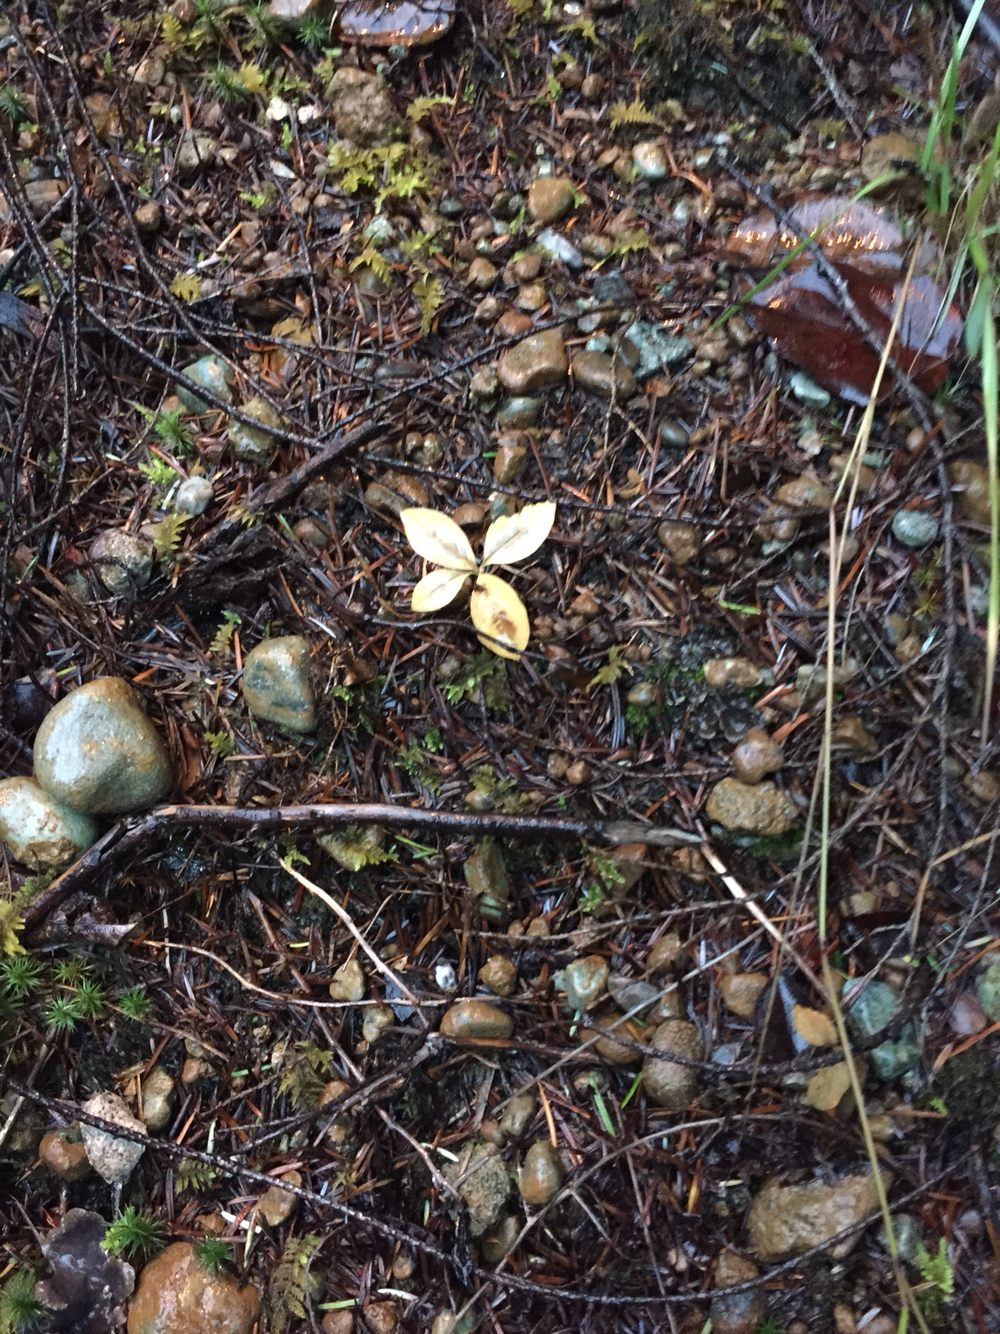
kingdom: Plantae
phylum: Tracheophyta
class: Magnoliopsida
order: Ericales
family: Primulaceae
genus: Lysimachia
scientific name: Lysimachia latifolia
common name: Pacific starflower
